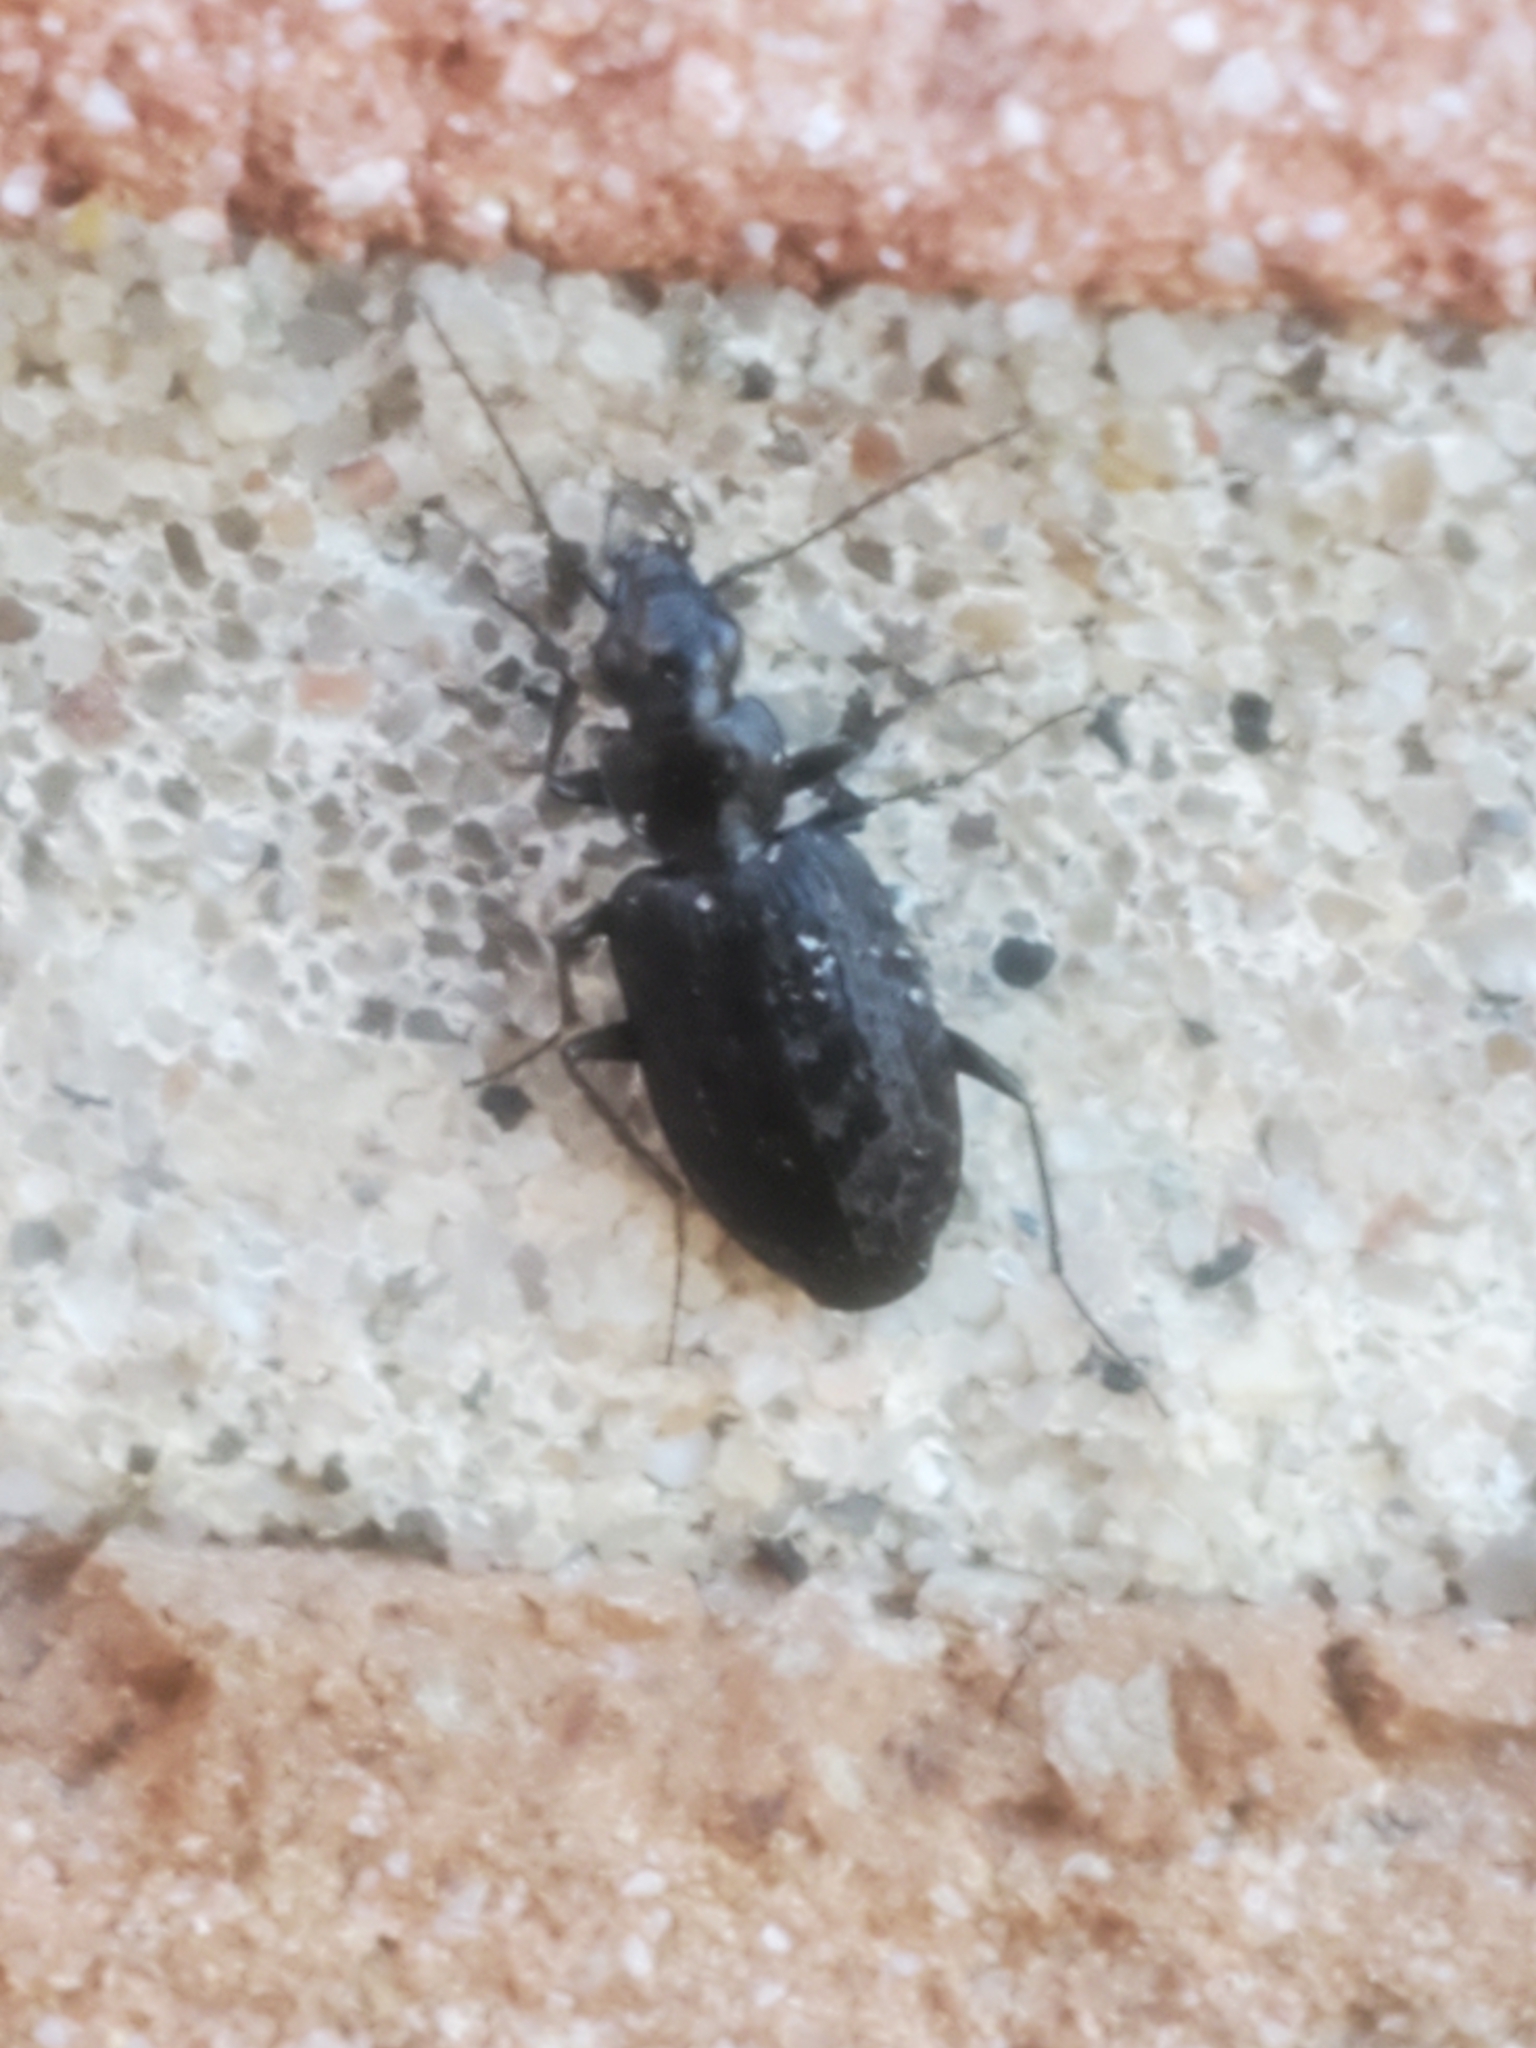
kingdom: Animalia
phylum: Arthropoda
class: Insecta
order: Coleoptera
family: Carabidae
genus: Sericoda
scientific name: Sericoda quadripunctata
